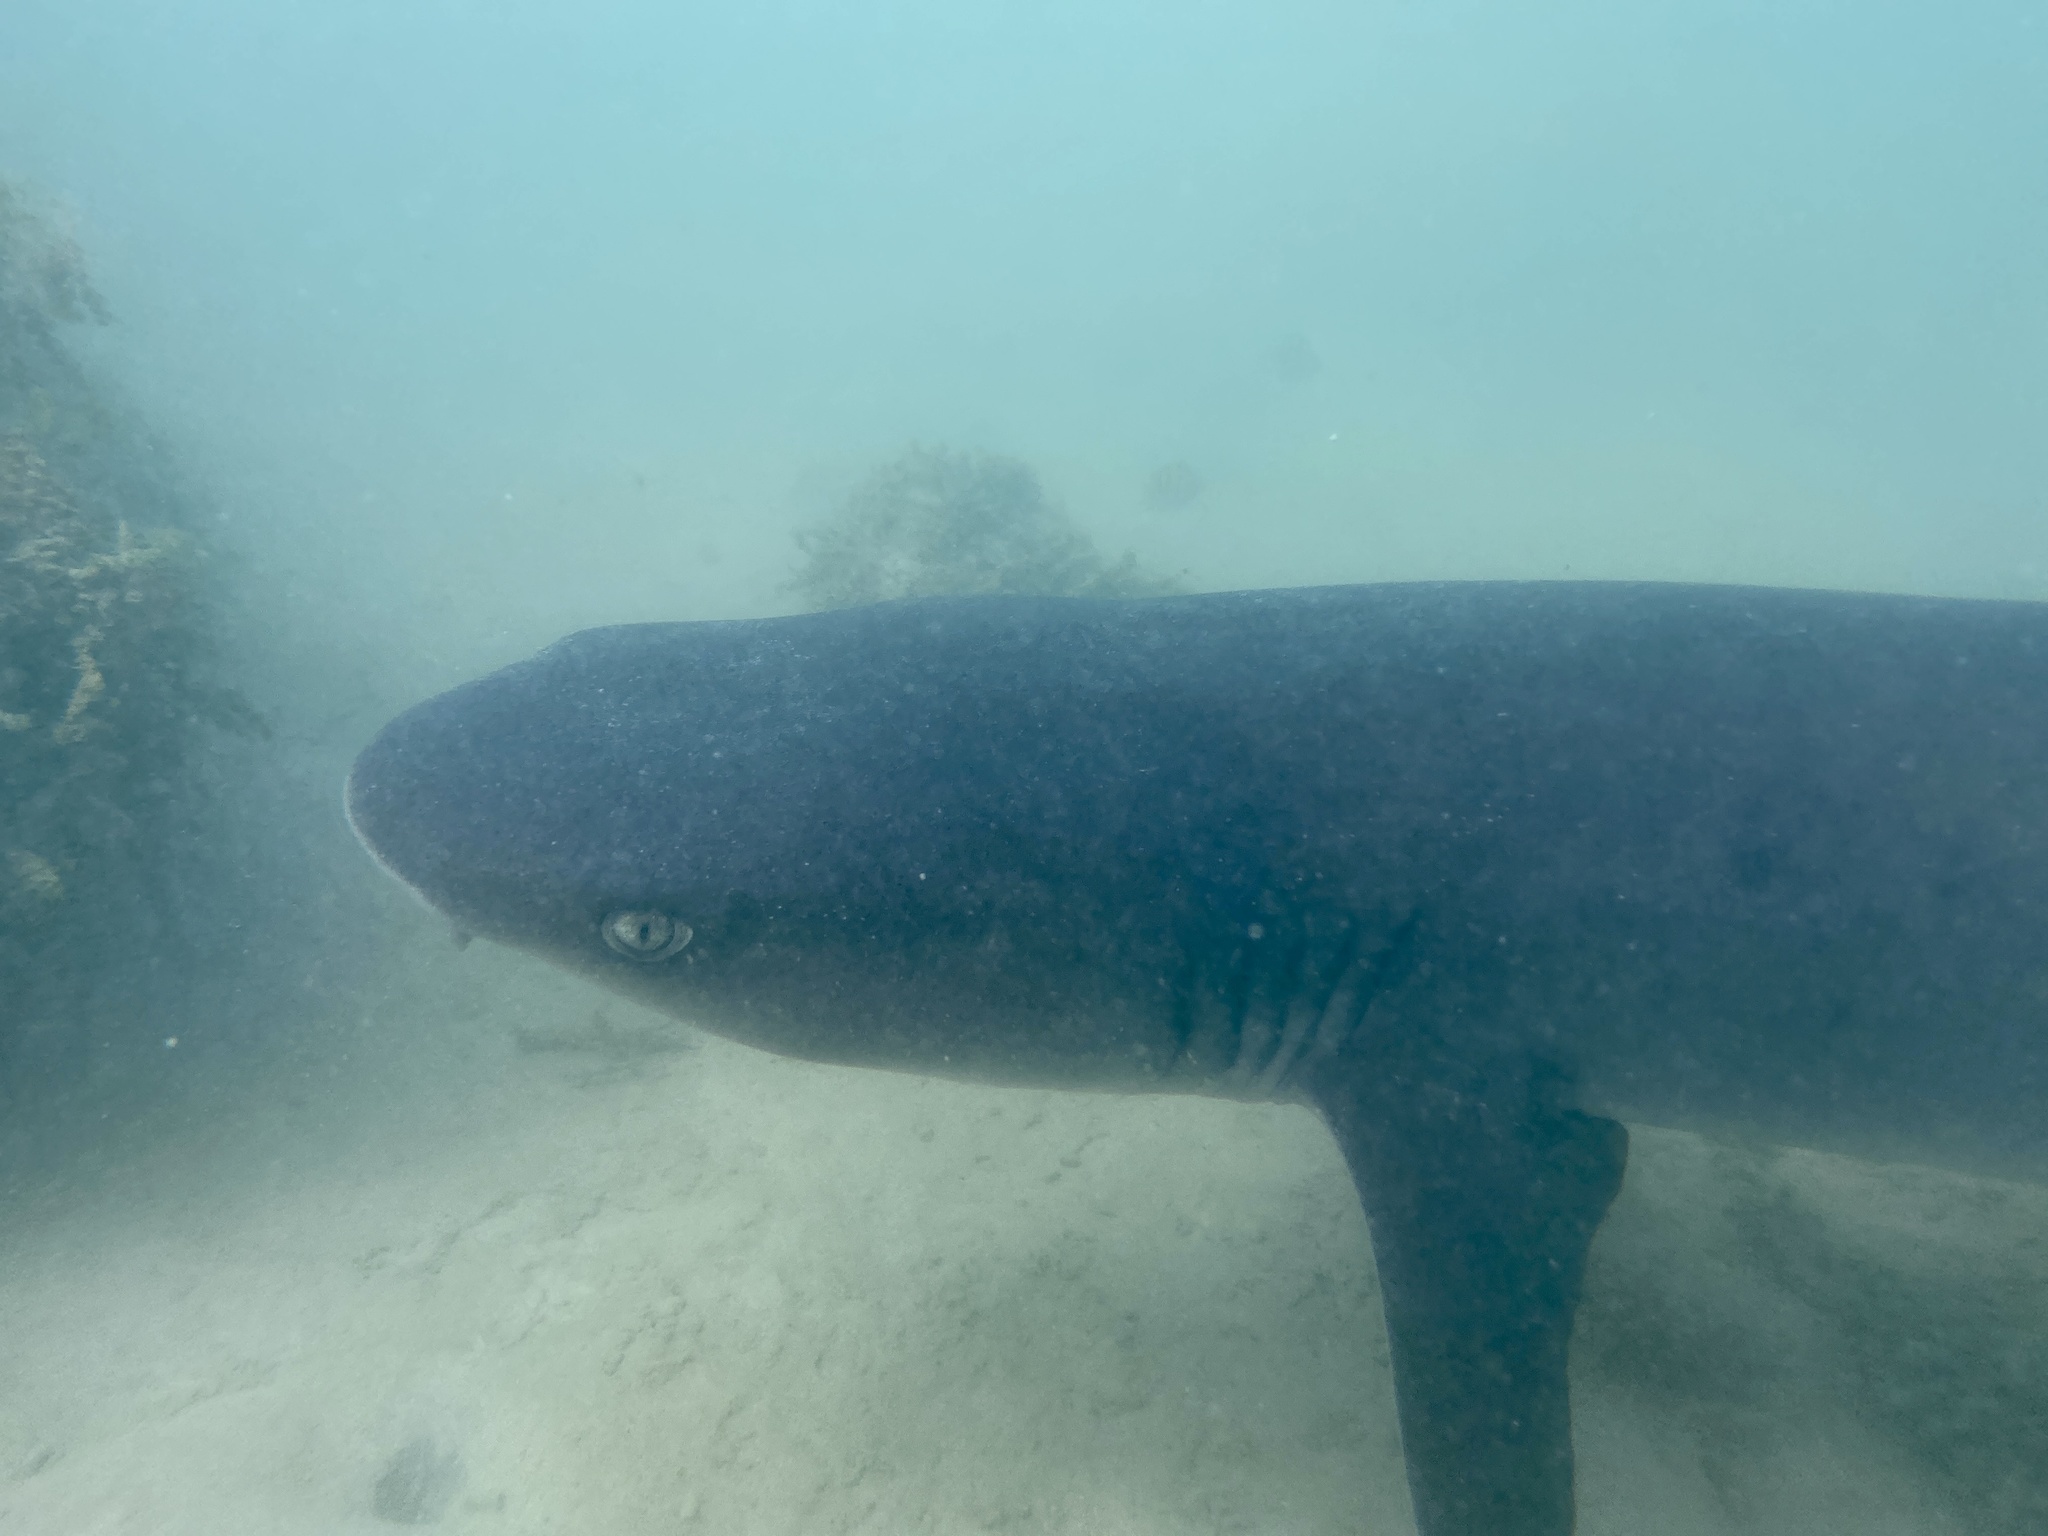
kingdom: Animalia
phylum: Chordata
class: Elasmobranchii
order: Carcharhiniformes
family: Carcharhinidae
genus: Triaenodon
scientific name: Triaenodon obesus
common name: Whitetip reef shark
